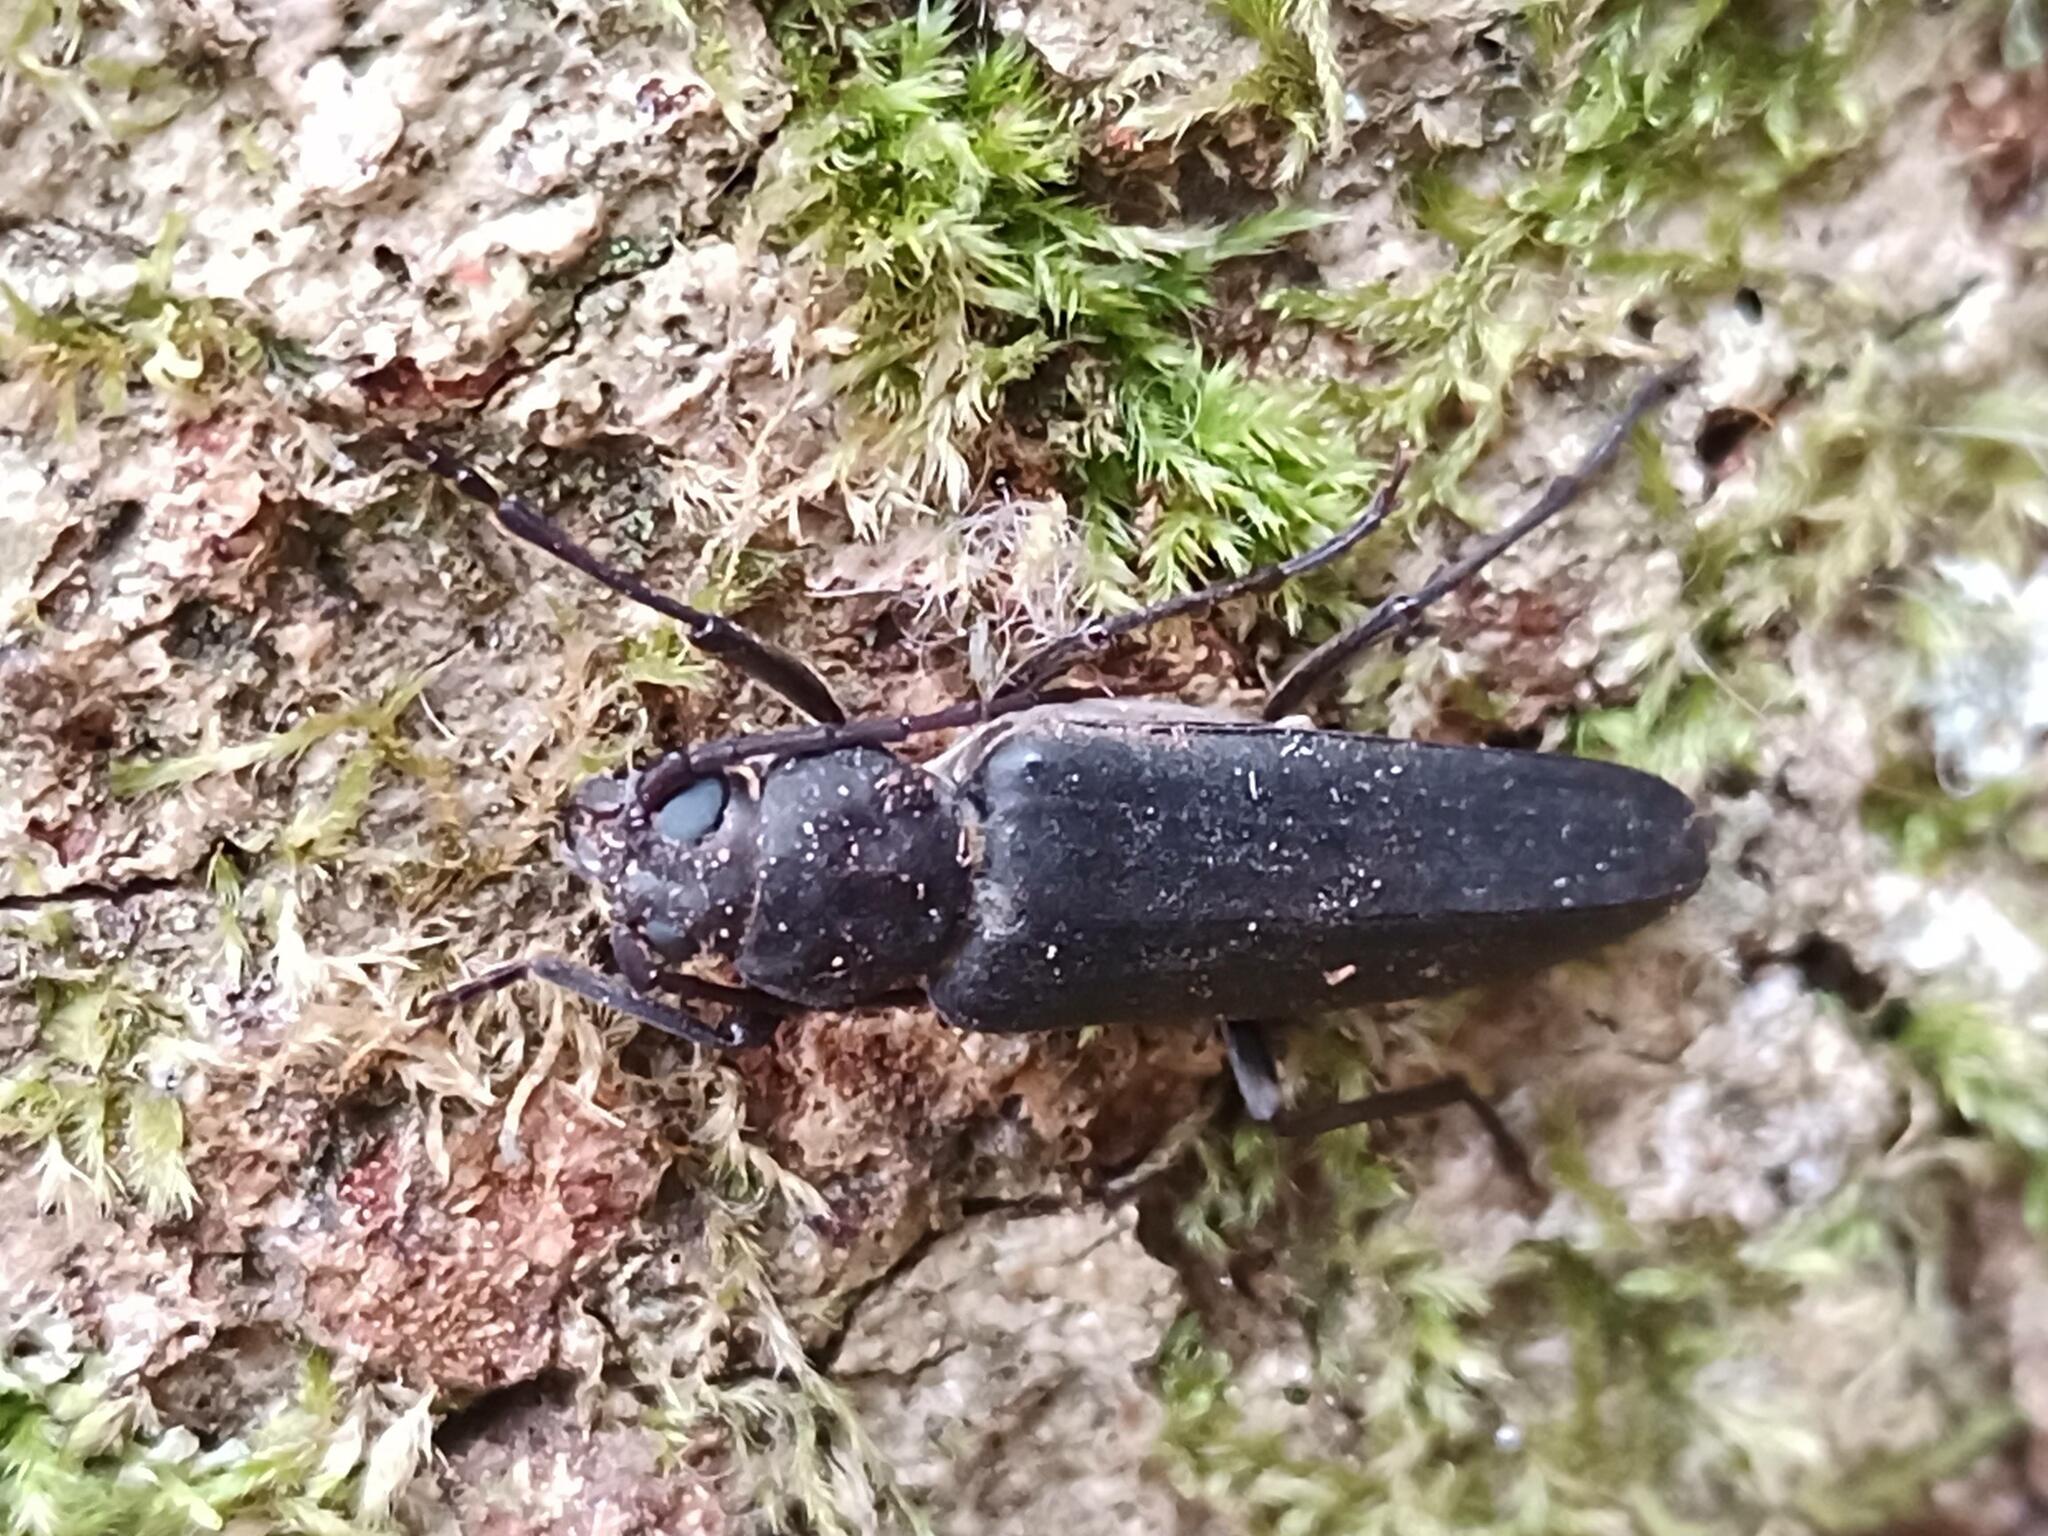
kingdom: Animalia
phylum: Arthropoda
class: Insecta
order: Coleoptera
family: Cerambycidae
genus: Arhopalus
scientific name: Arhopalus ferus
